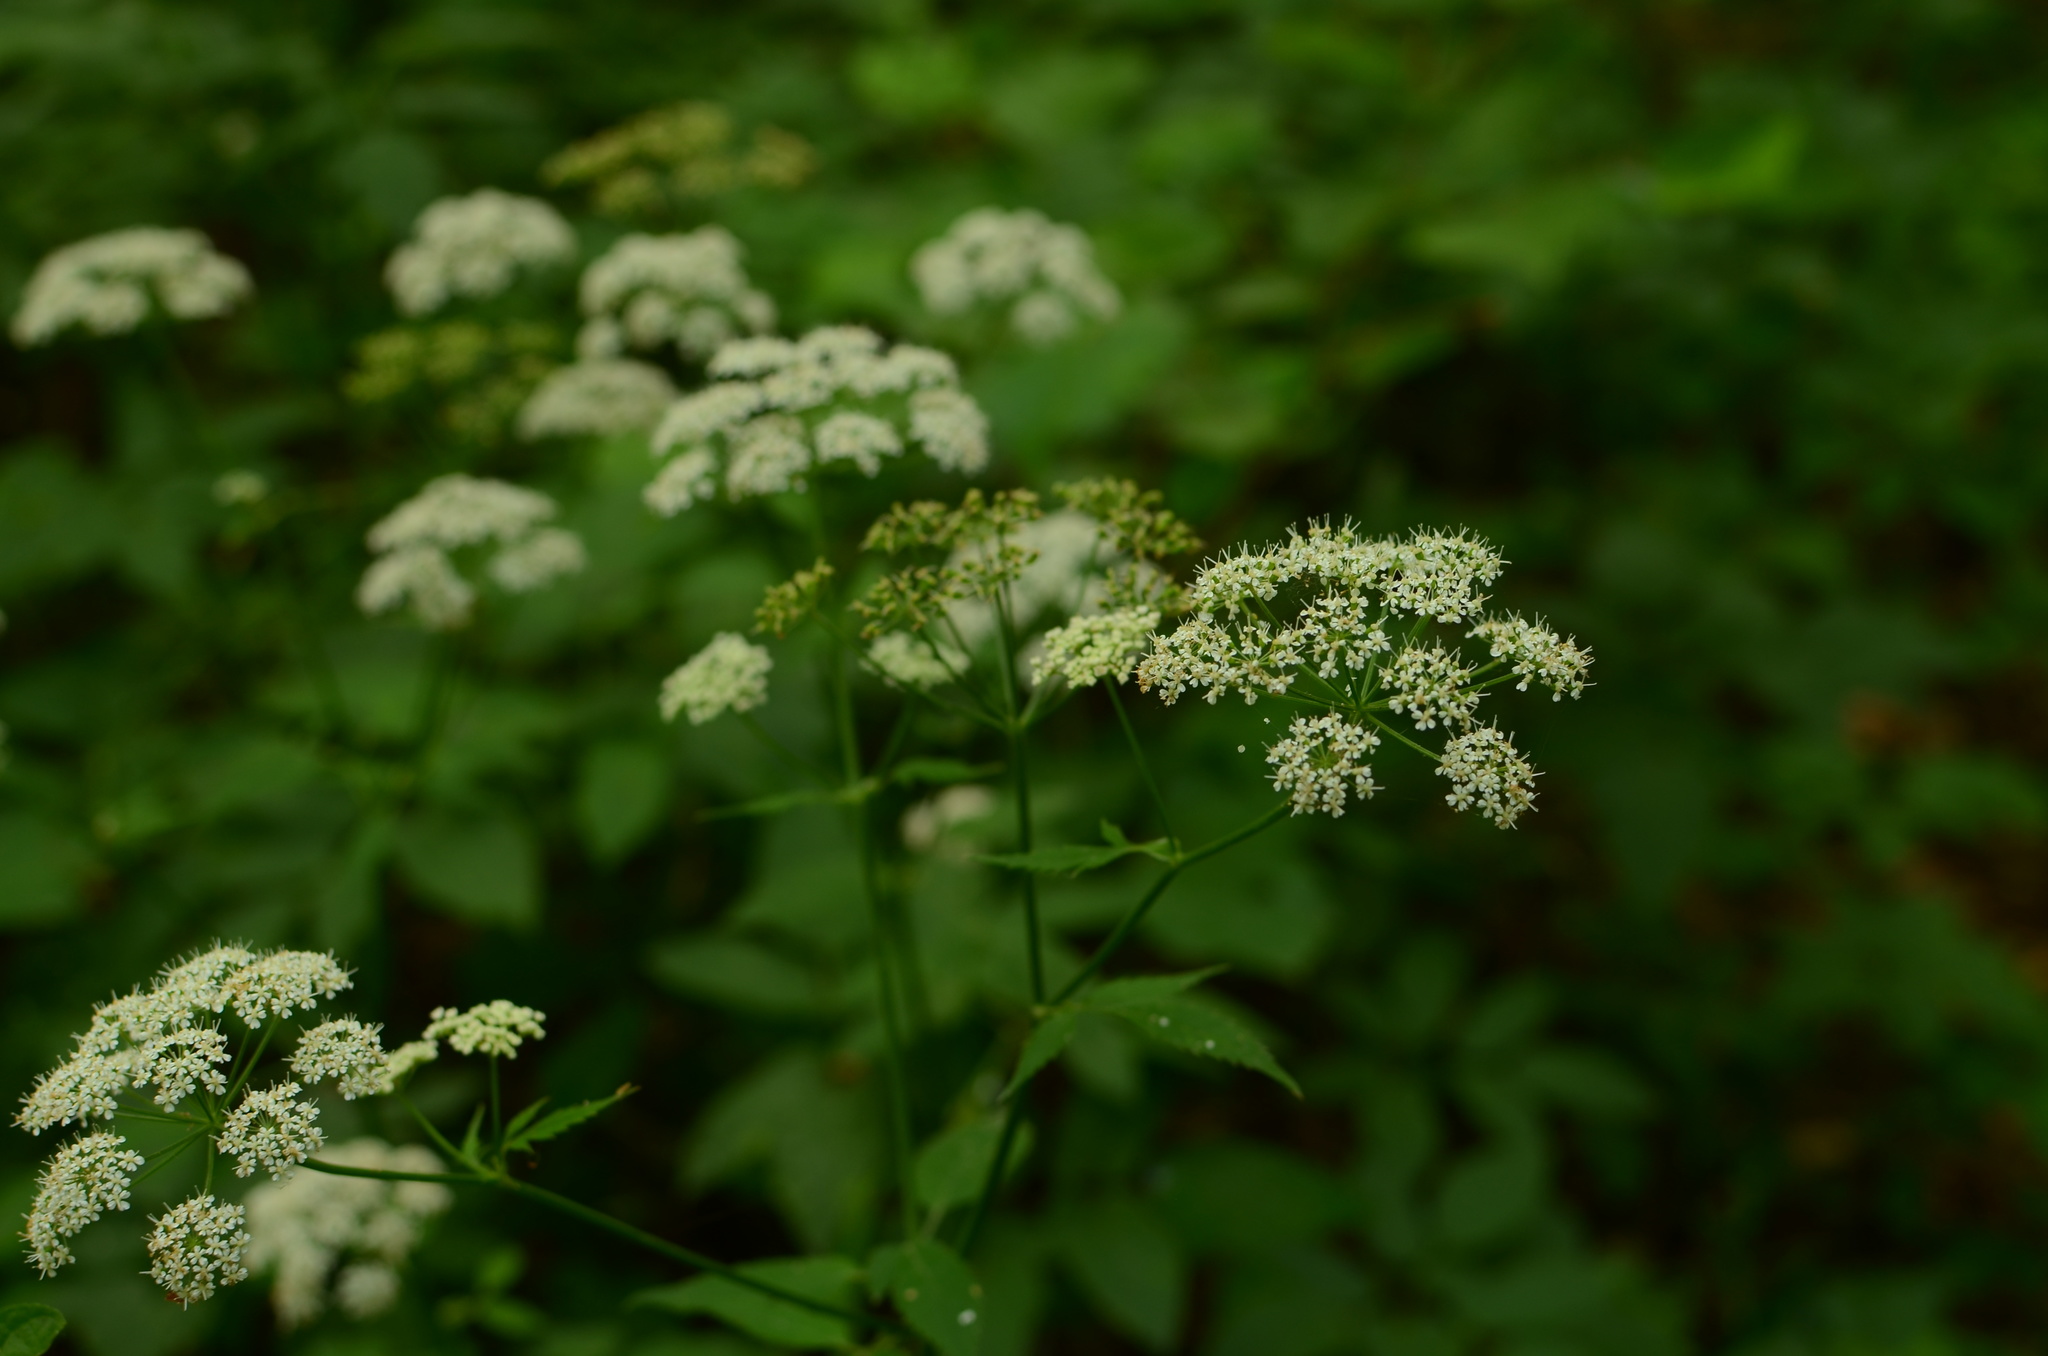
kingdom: Plantae
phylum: Tracheophyta
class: Magnoliopsida
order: Apiales
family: Apiaceae
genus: Aegopodium
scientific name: Aegopodium podagraria
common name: Ground-elder
